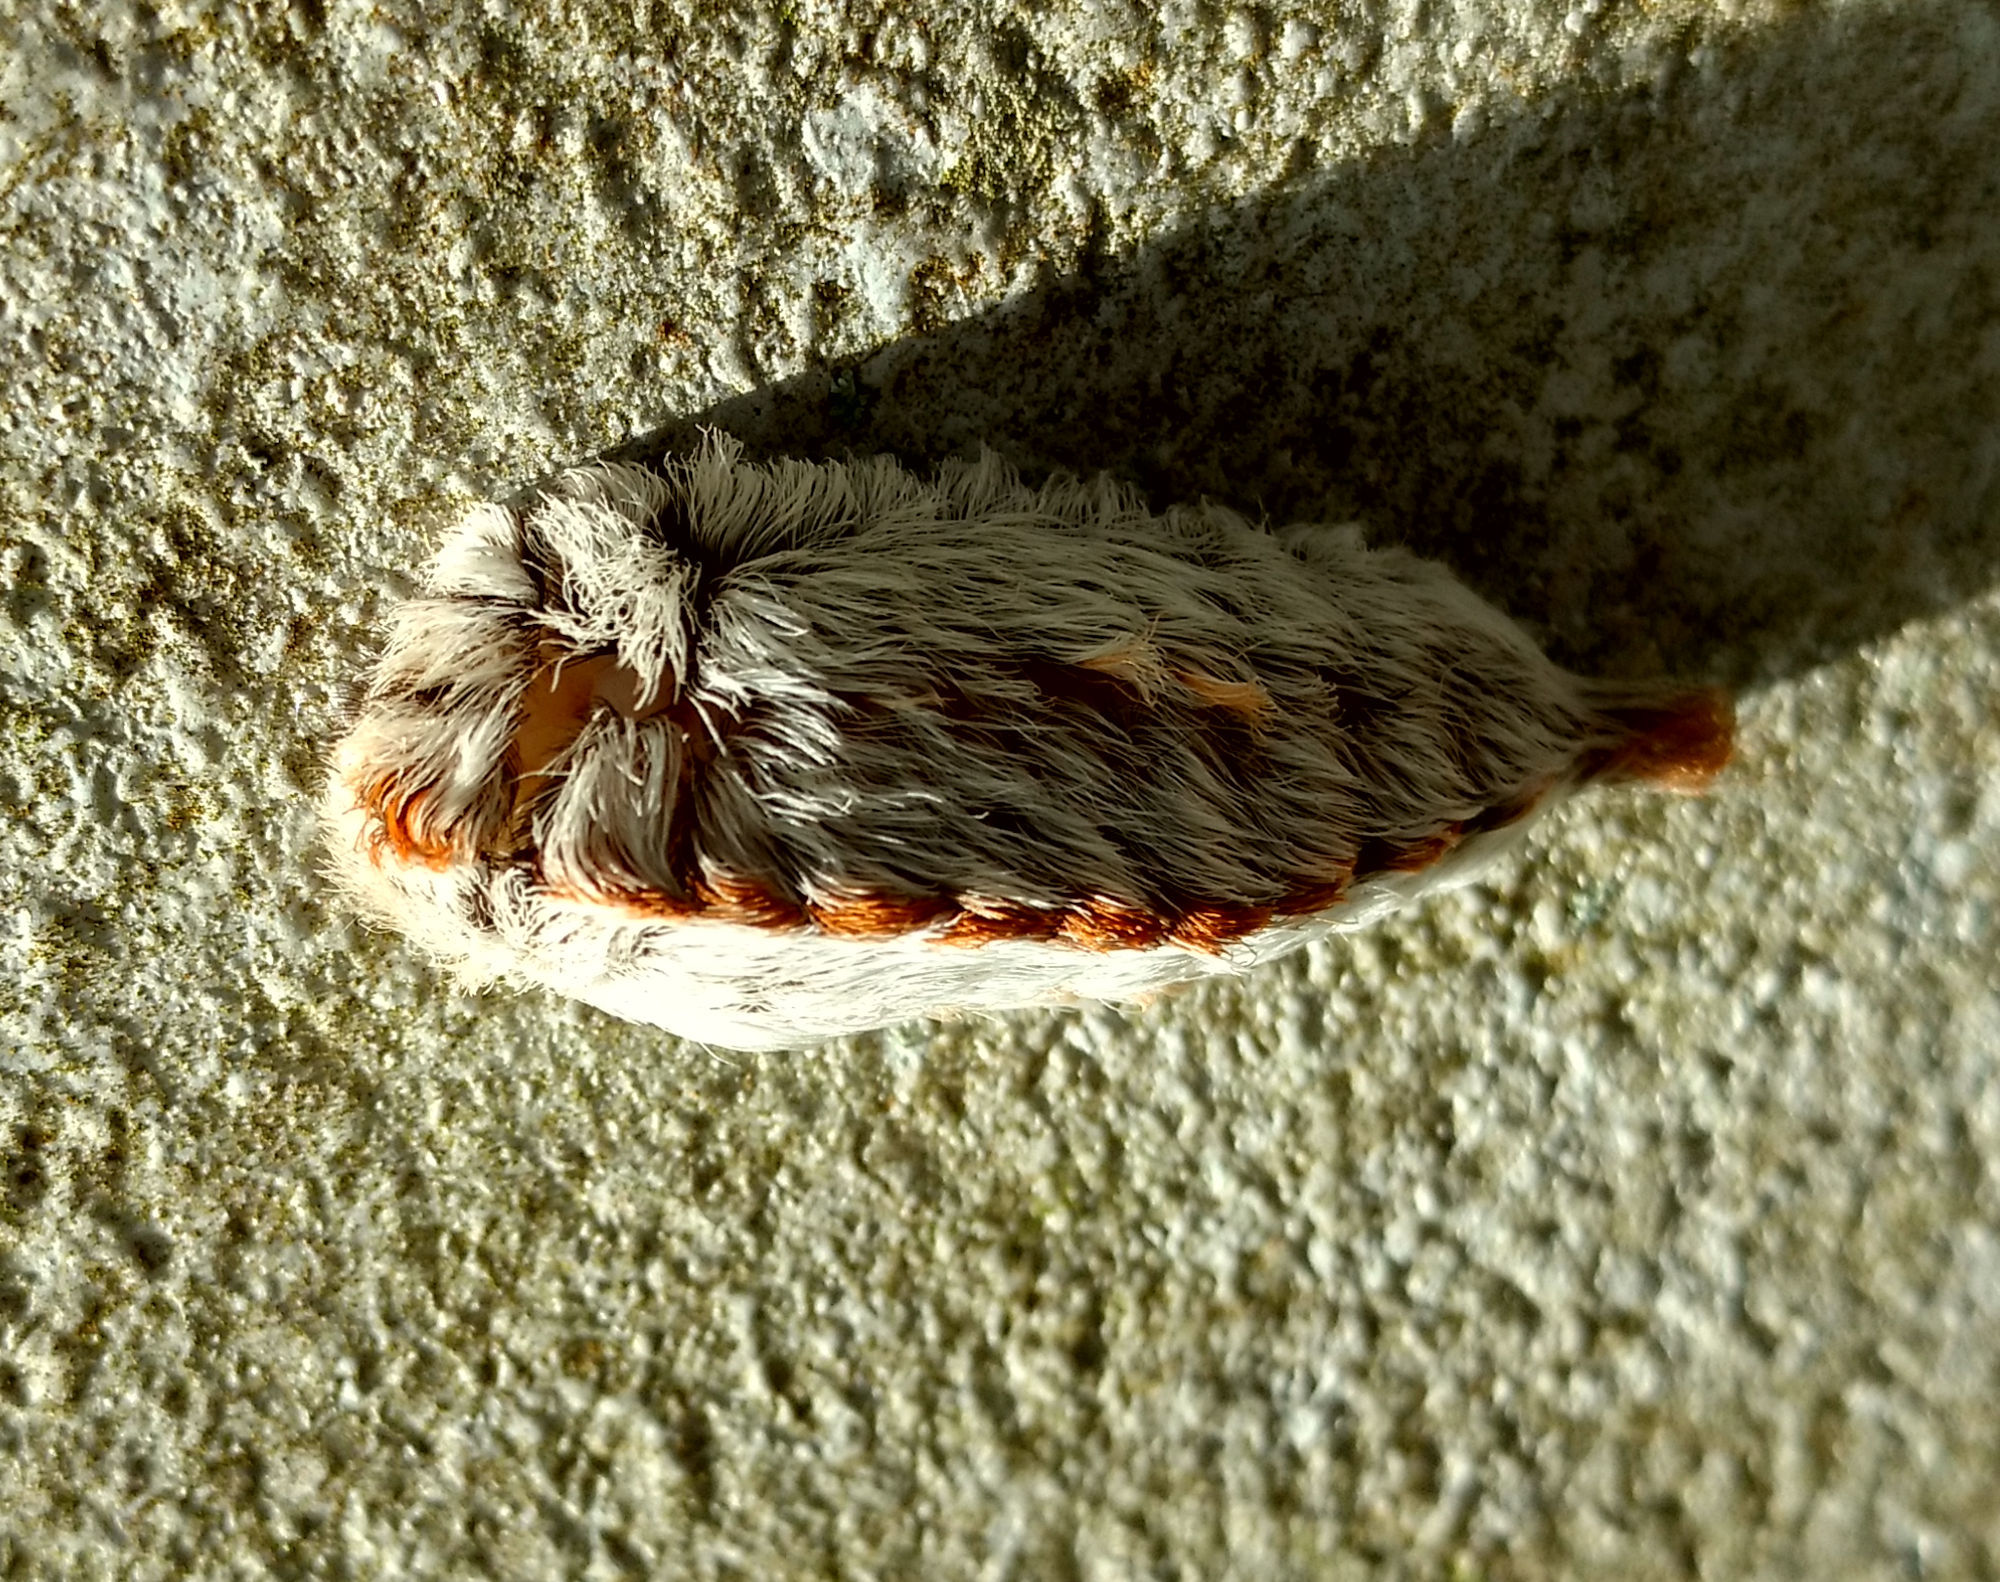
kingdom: Animalia
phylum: Arthropoda
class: Insecta
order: Lepidoptera
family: Megalopygidae
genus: Megalopyge
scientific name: Megalopyge opercularis
